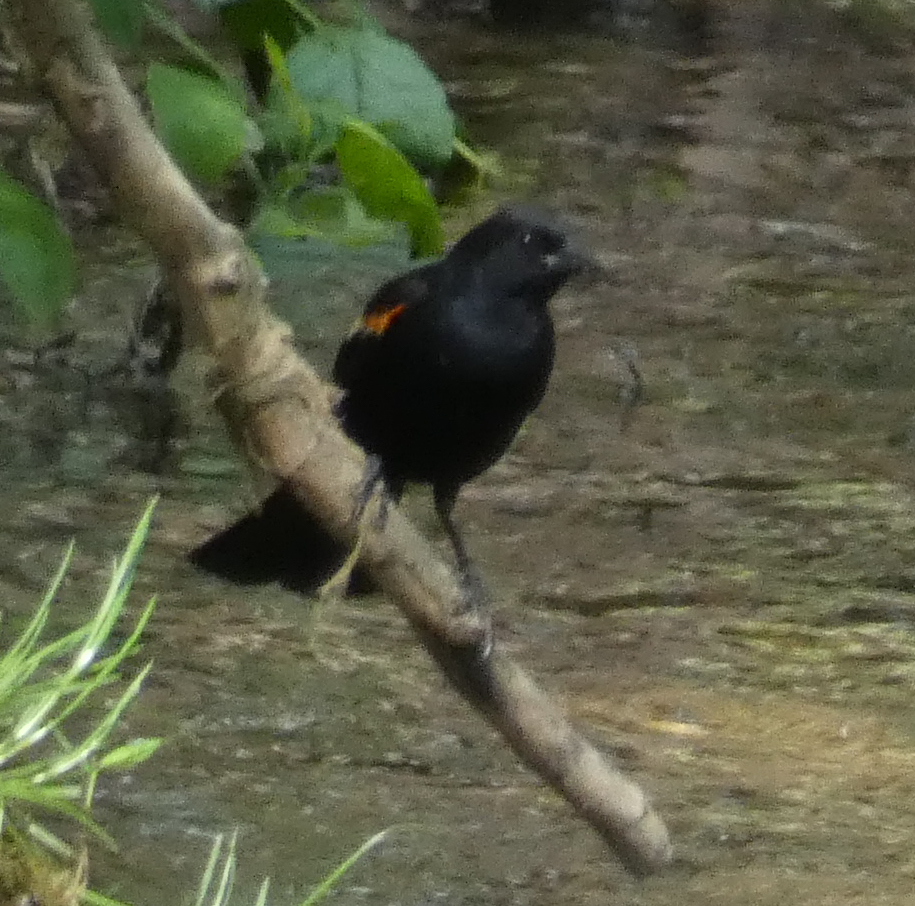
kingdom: Animalia
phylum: Chordata
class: Aves
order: Passeriformes
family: Icteridae
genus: Agelaius
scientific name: Agelaius phoeniceus
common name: Red-winged blackbird
